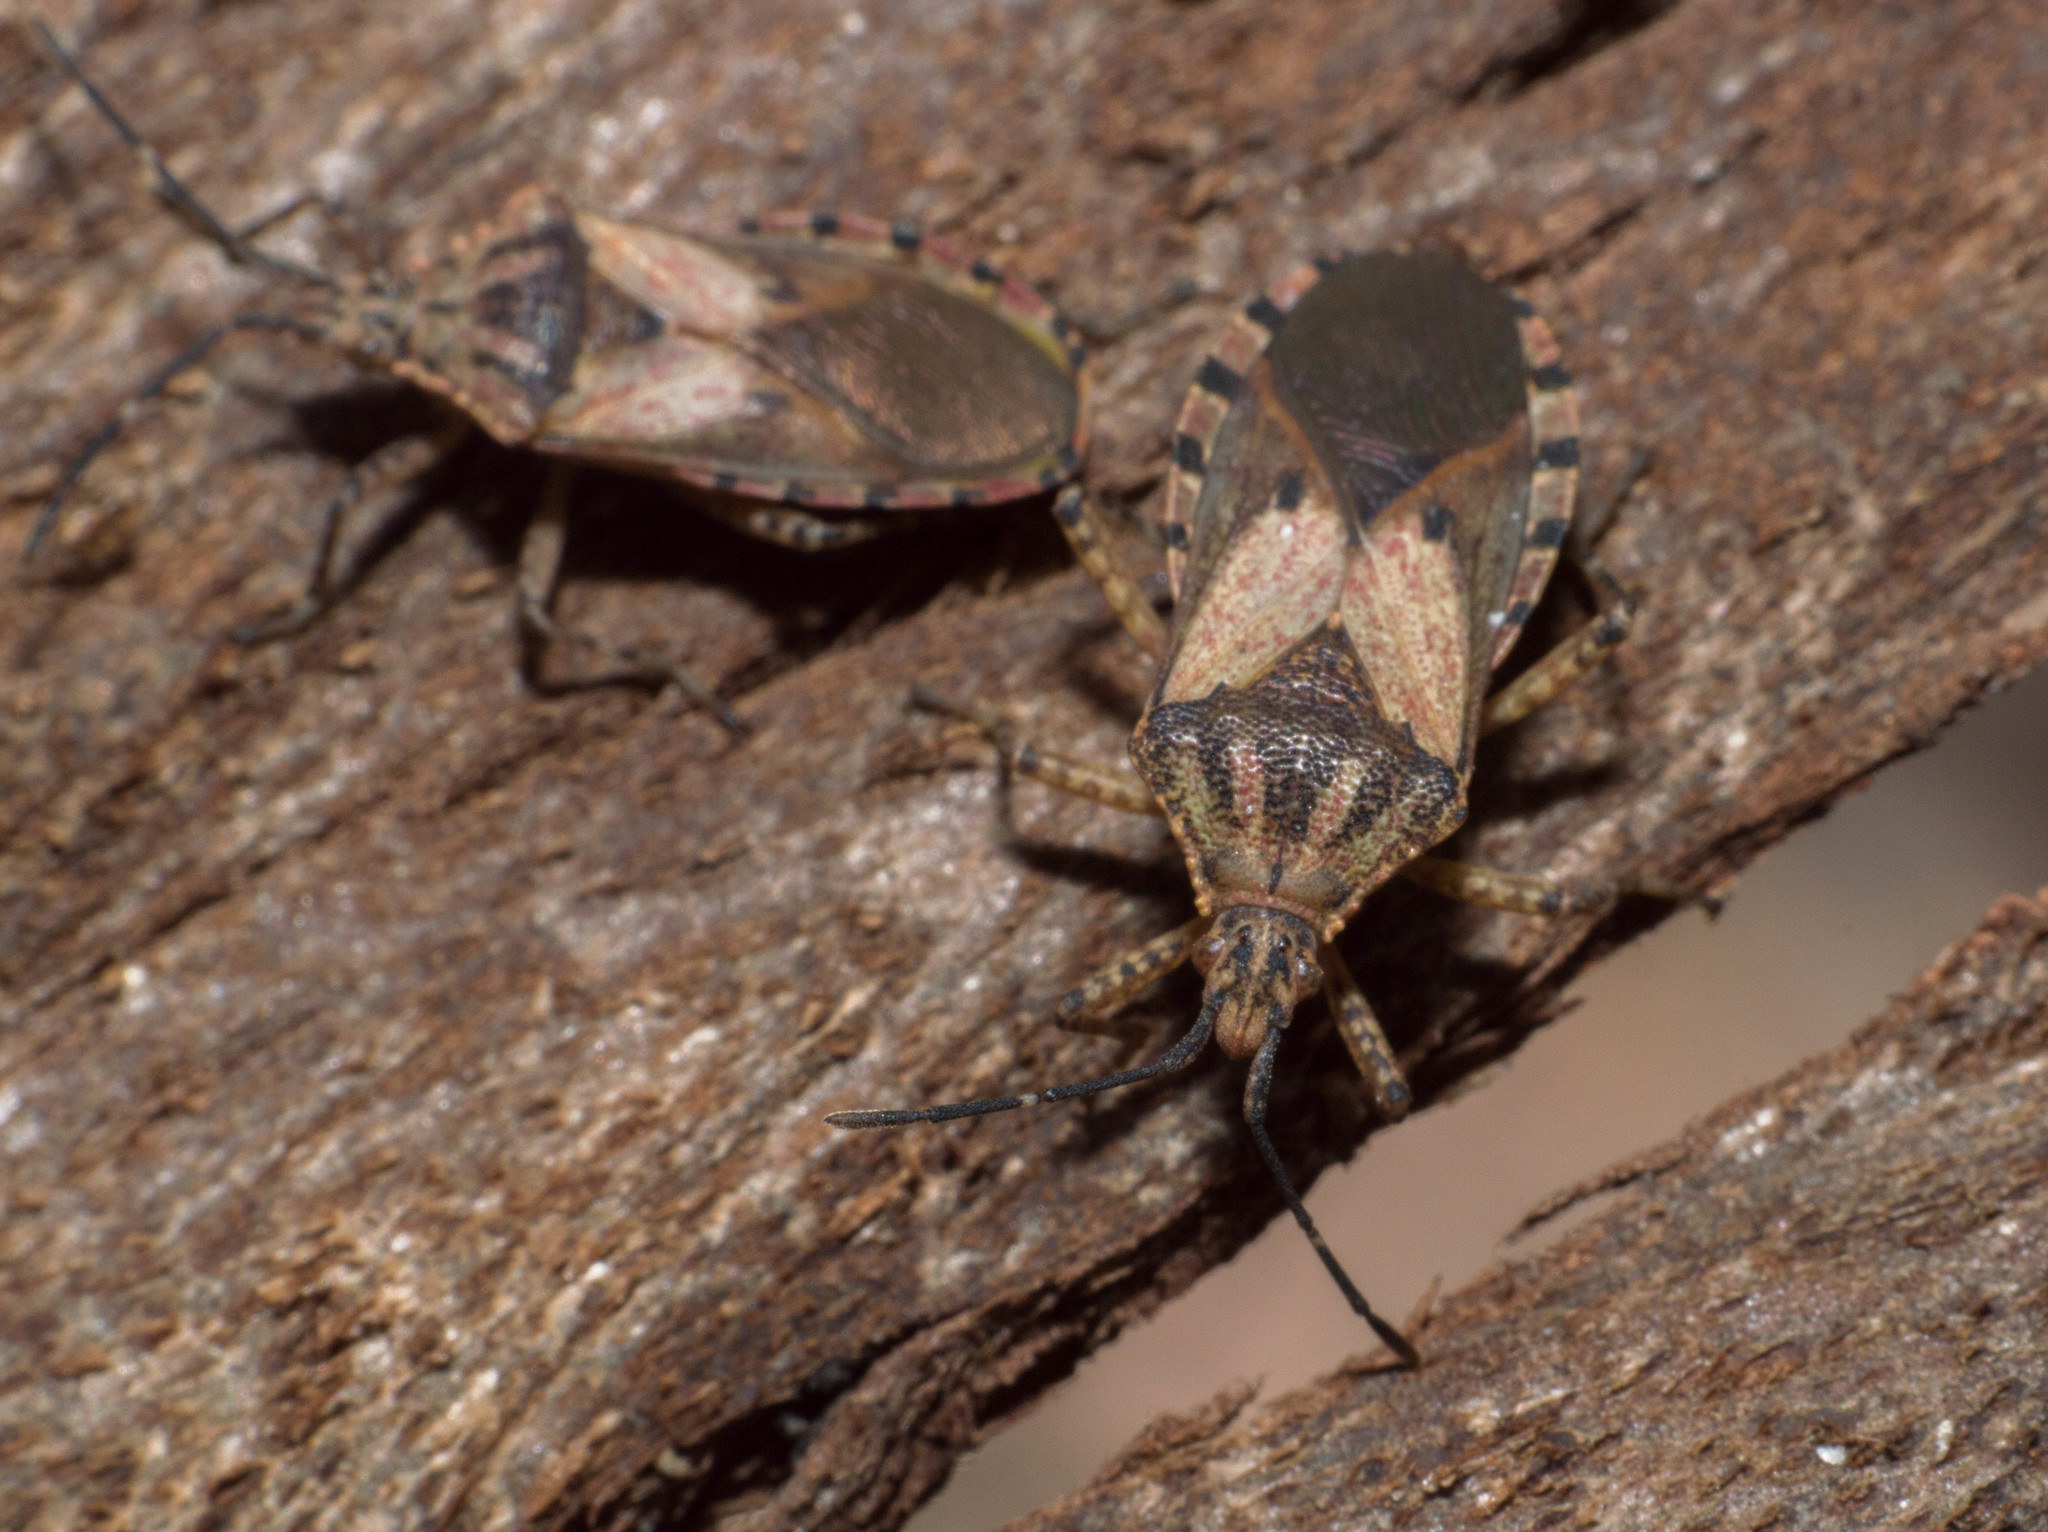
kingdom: Animalia
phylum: Arthropoda
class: Insecta
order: Hemiptera
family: Coreidae
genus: Acidomeria
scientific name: Acidomeria cincticornis
